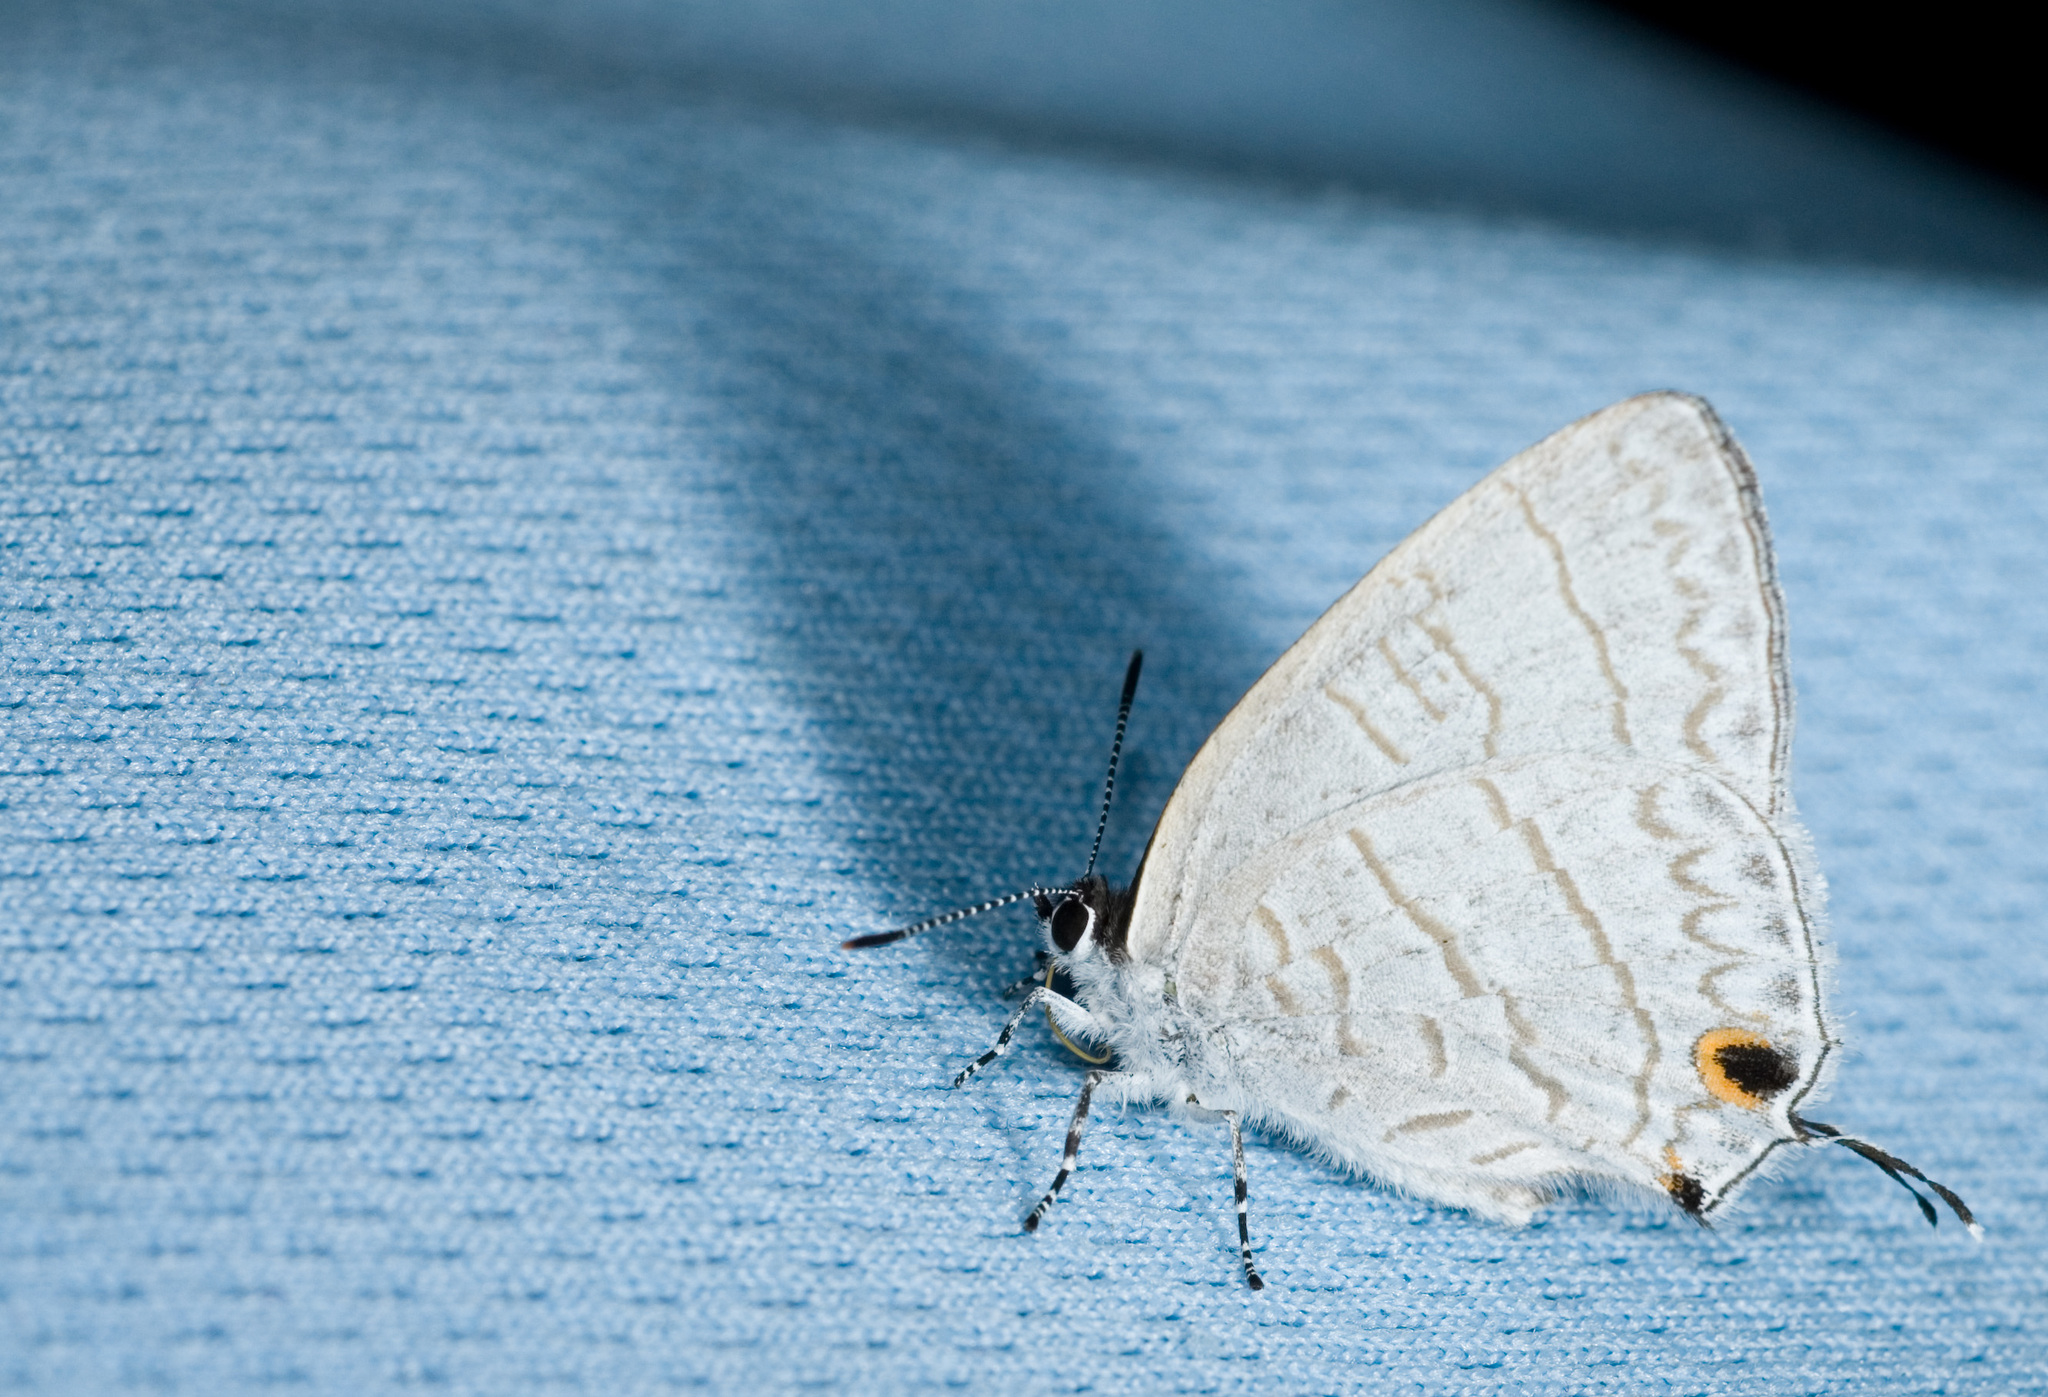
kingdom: Animalia
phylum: Arthropoda
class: Insecta
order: Lepidoptera
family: Lycaenidae
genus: Leucantigius
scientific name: Leucantigius atayalica
